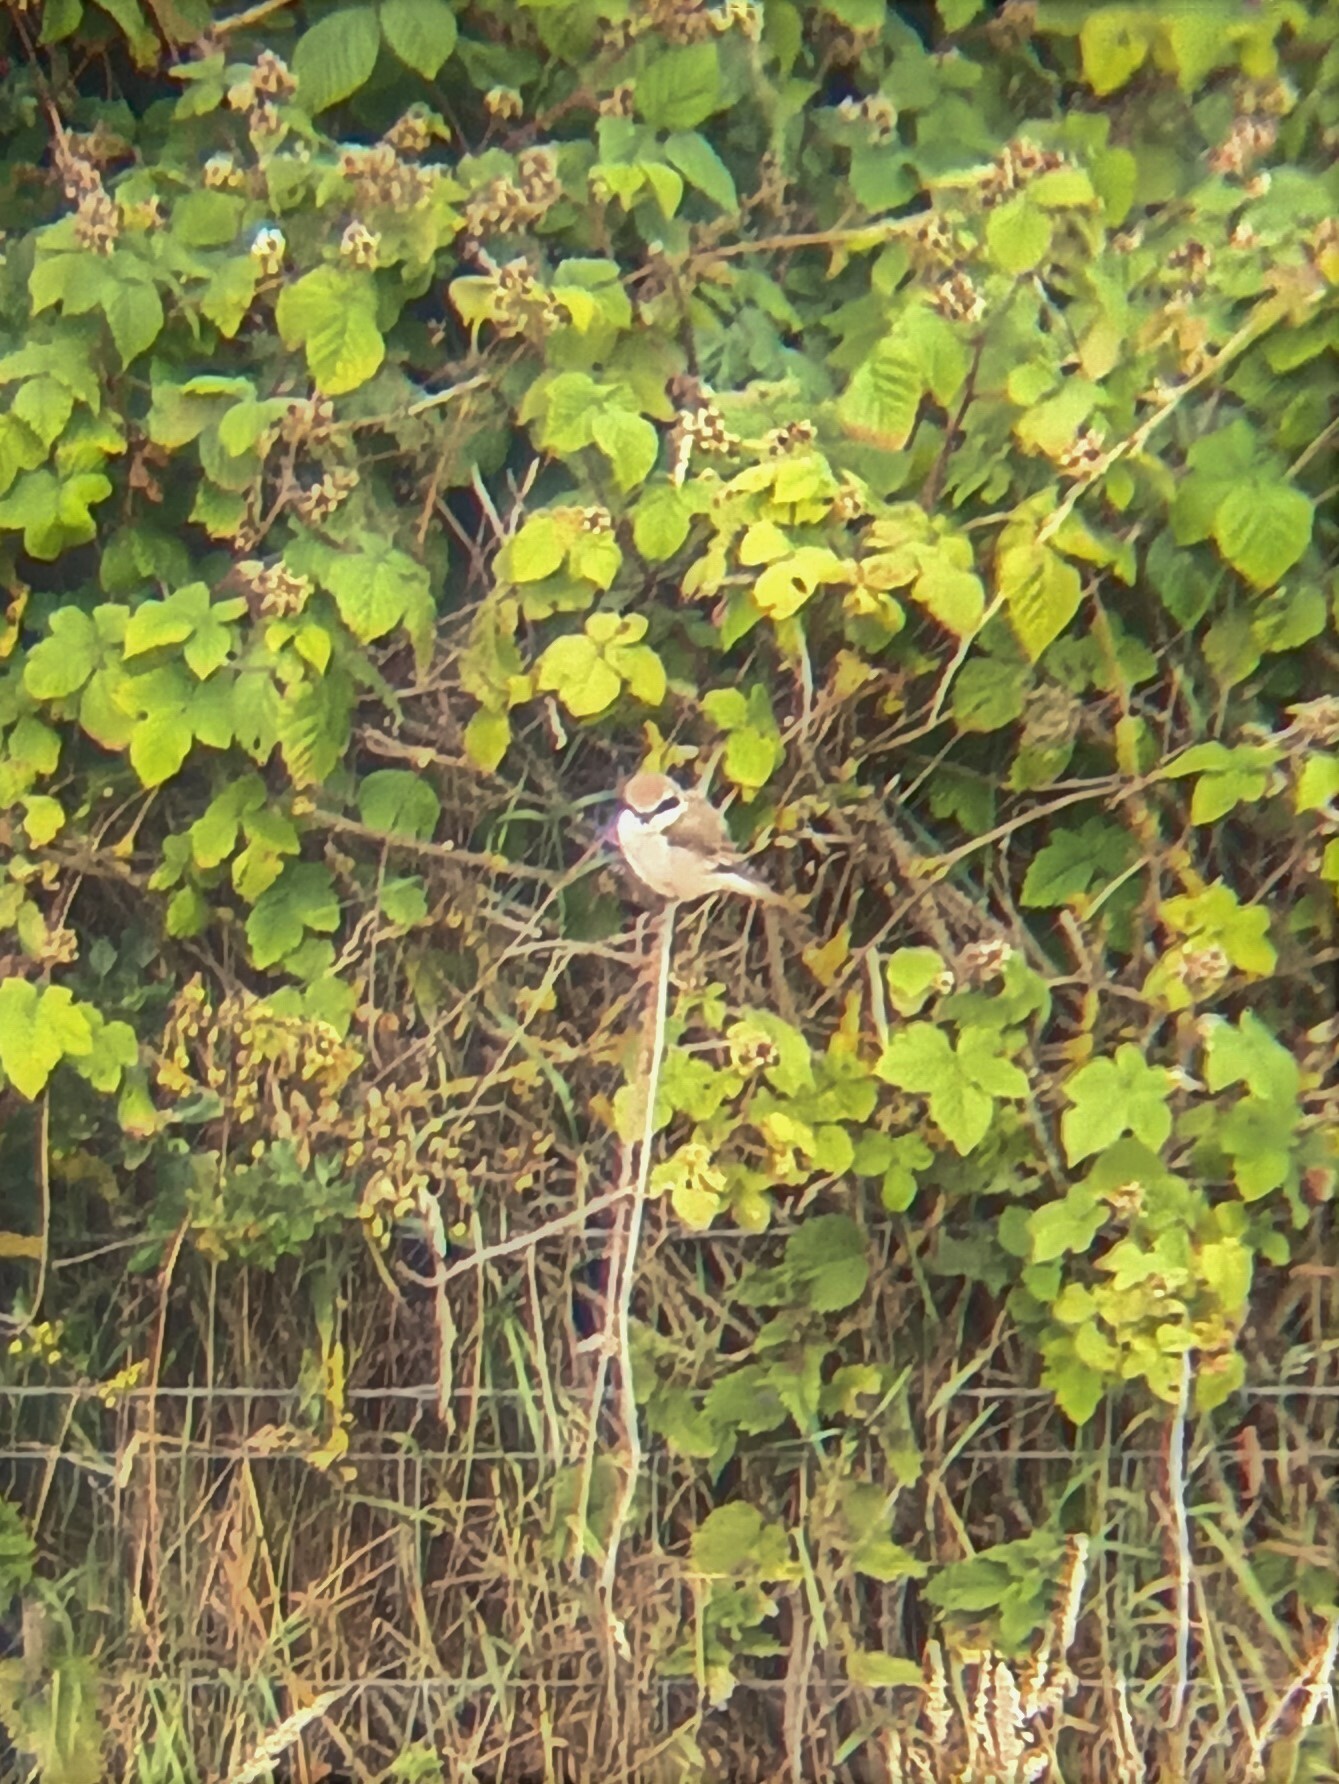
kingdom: Animalia
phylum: Chordata
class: Aves
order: Passeriformes
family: Laniidae
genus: Lanius
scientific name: Lanius phoenicuroides
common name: Red-tailed shrike
